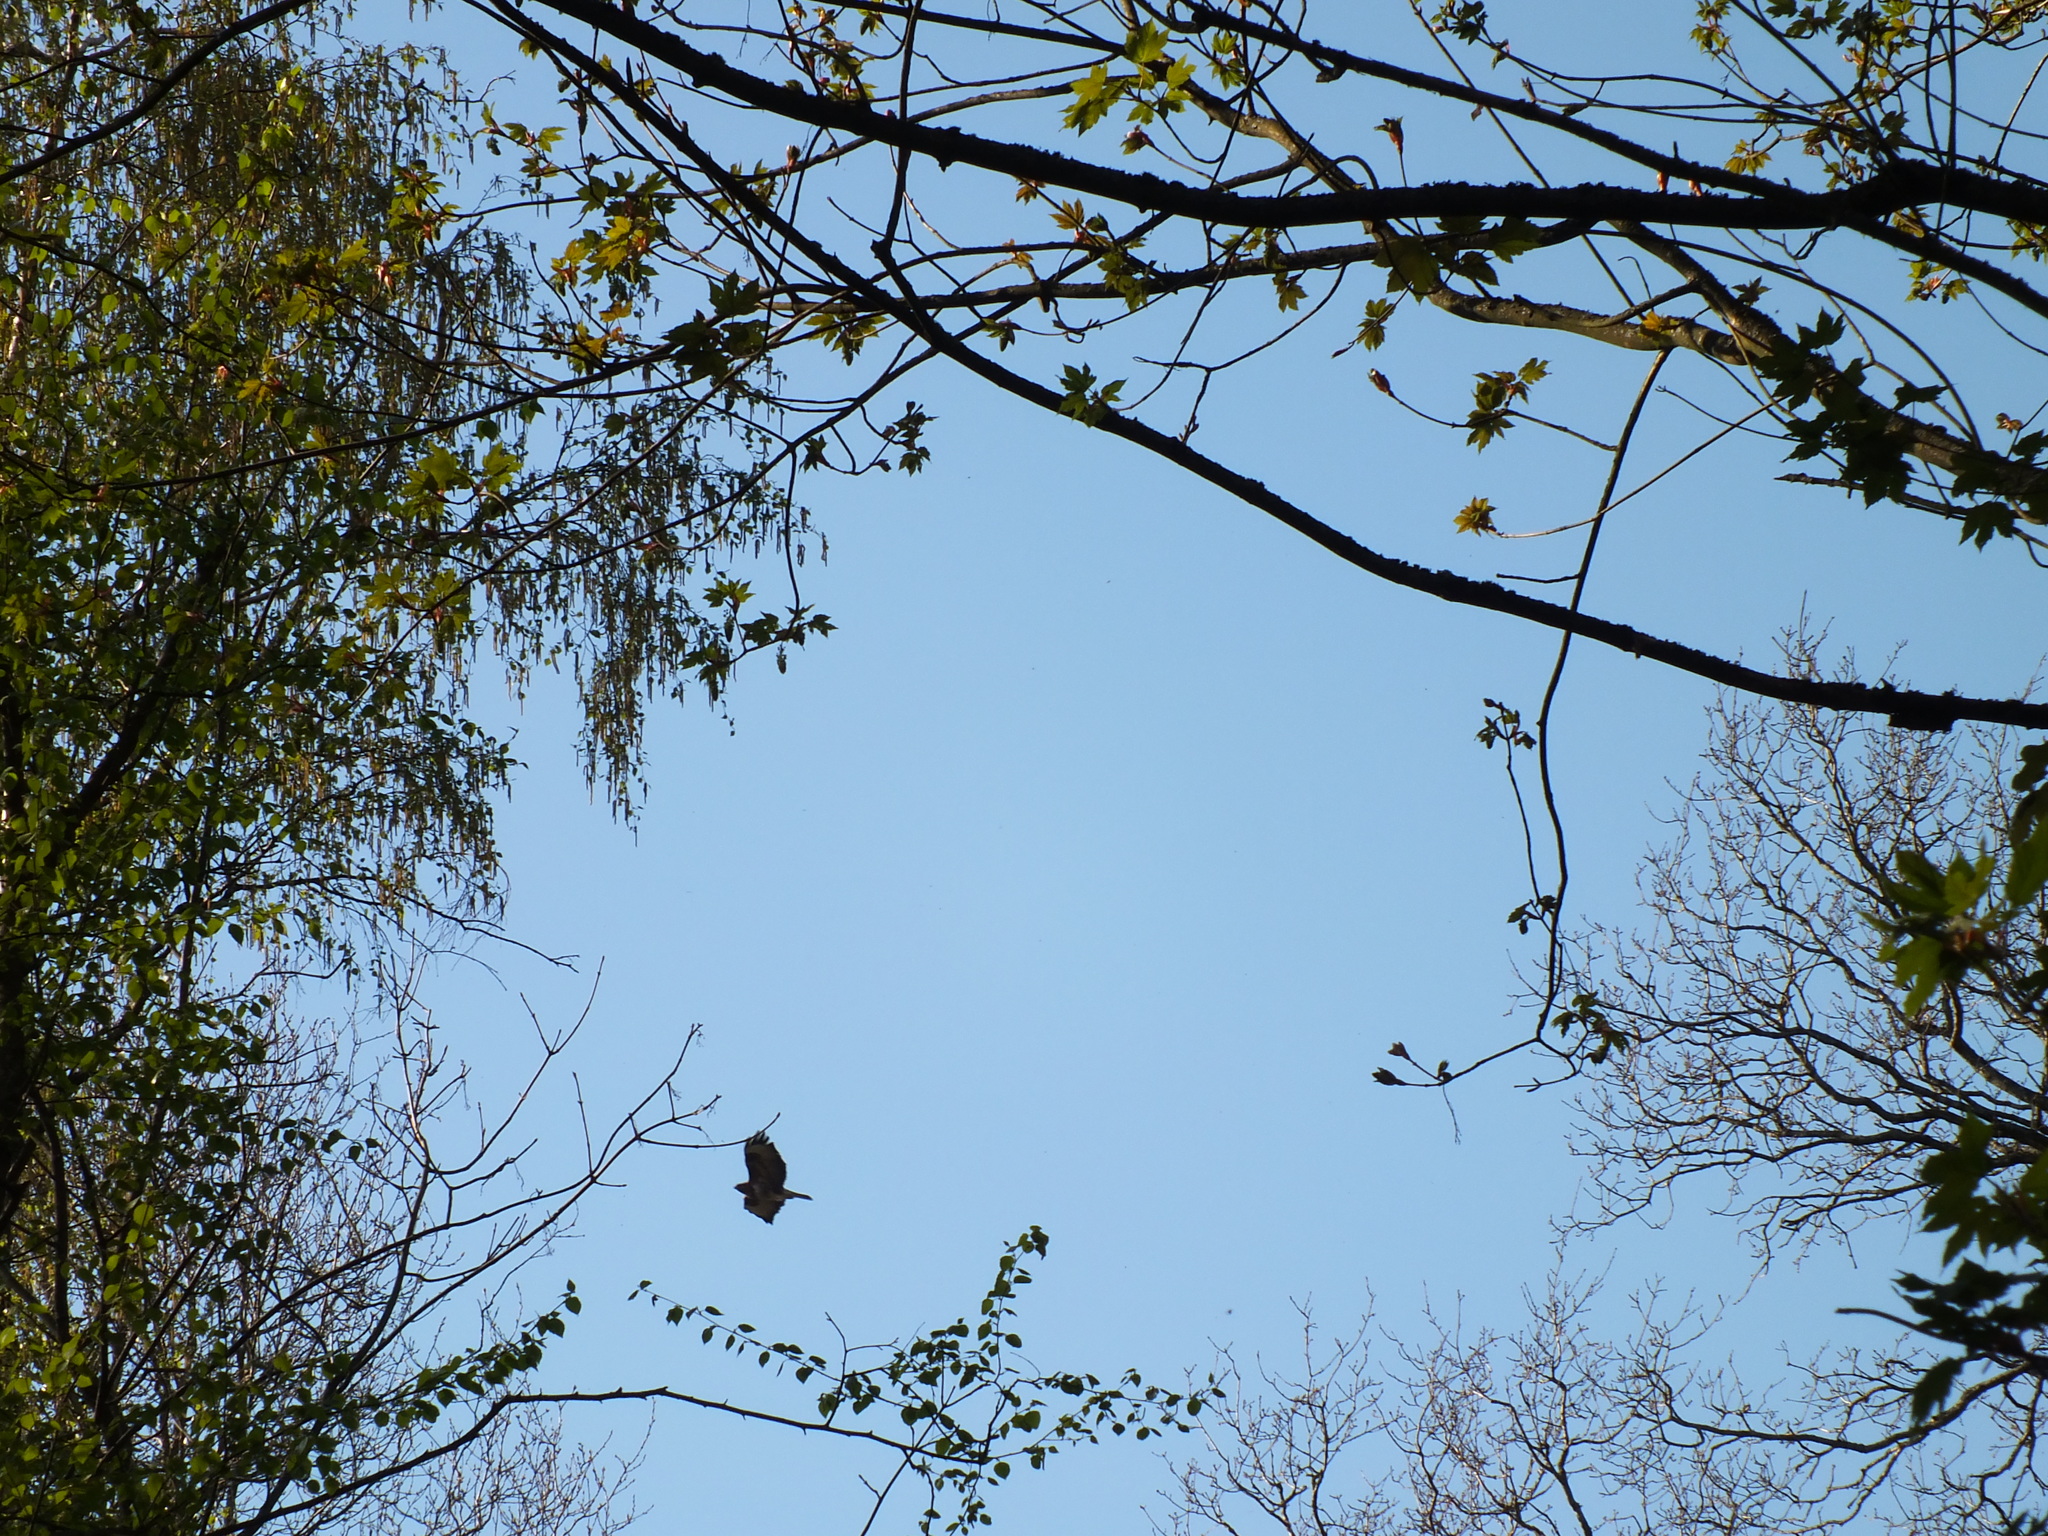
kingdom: Animalia
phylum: Chordata
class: Aves
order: Accipitriformes
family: Accipitridae
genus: Buteo
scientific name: Buteo buteo
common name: Common buzzard
